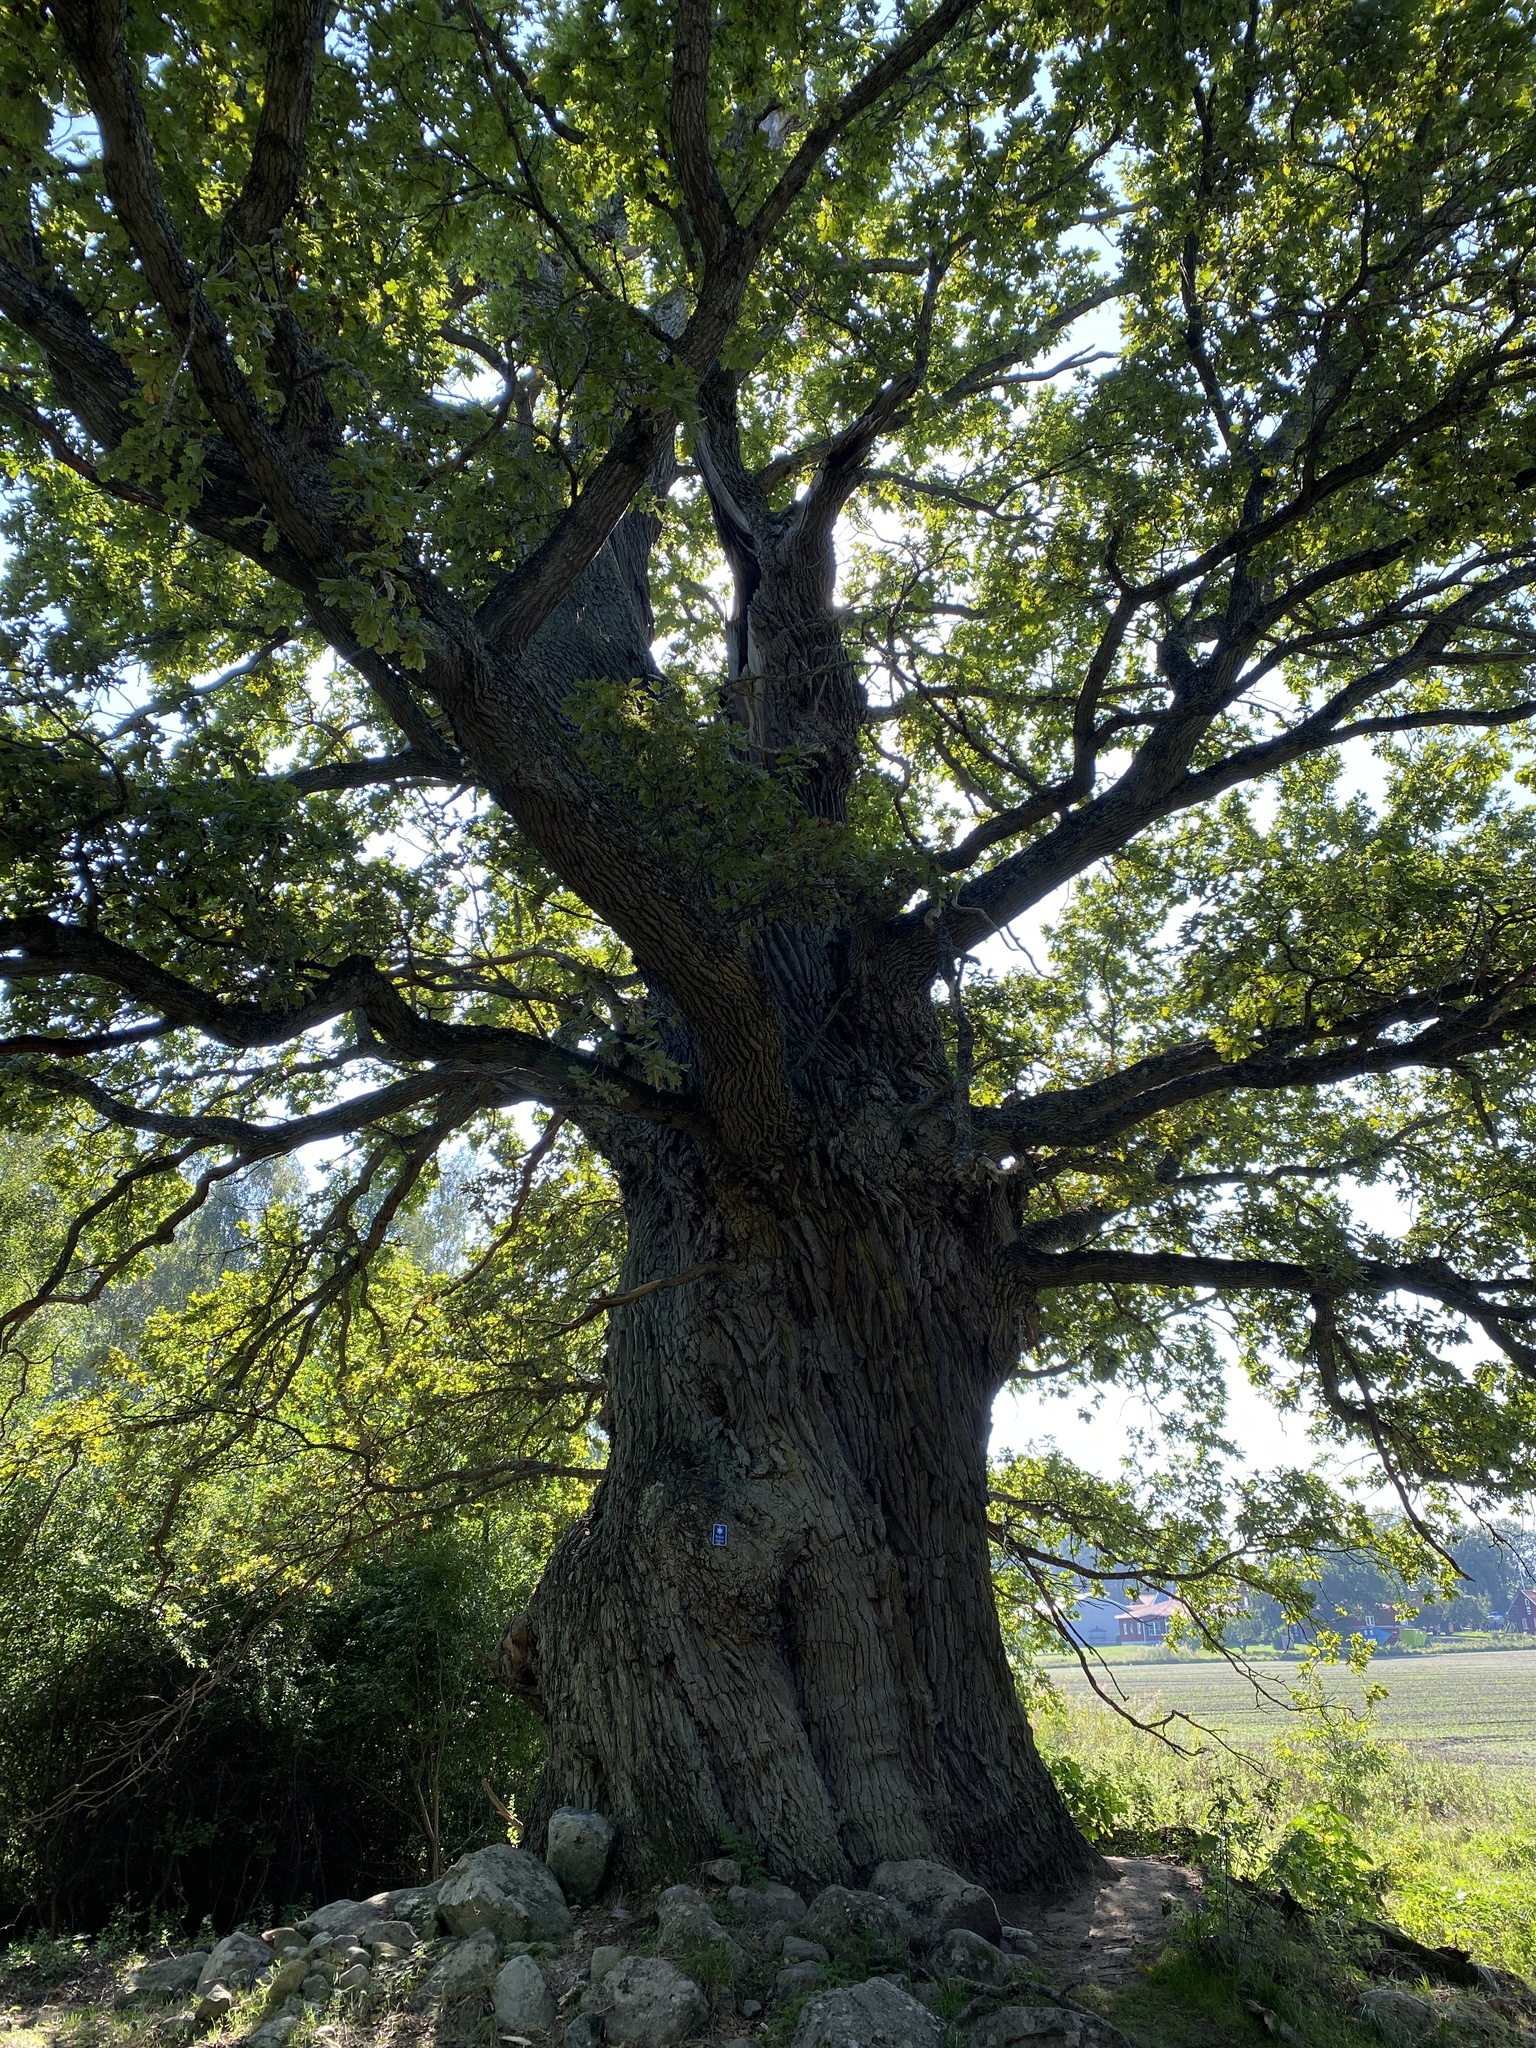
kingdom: Plantae
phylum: Tracheophyta
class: Magnoliopsida
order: Fagales
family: Fagaceae
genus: Quercus
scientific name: Quercus robur
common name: Pedunculate oak
